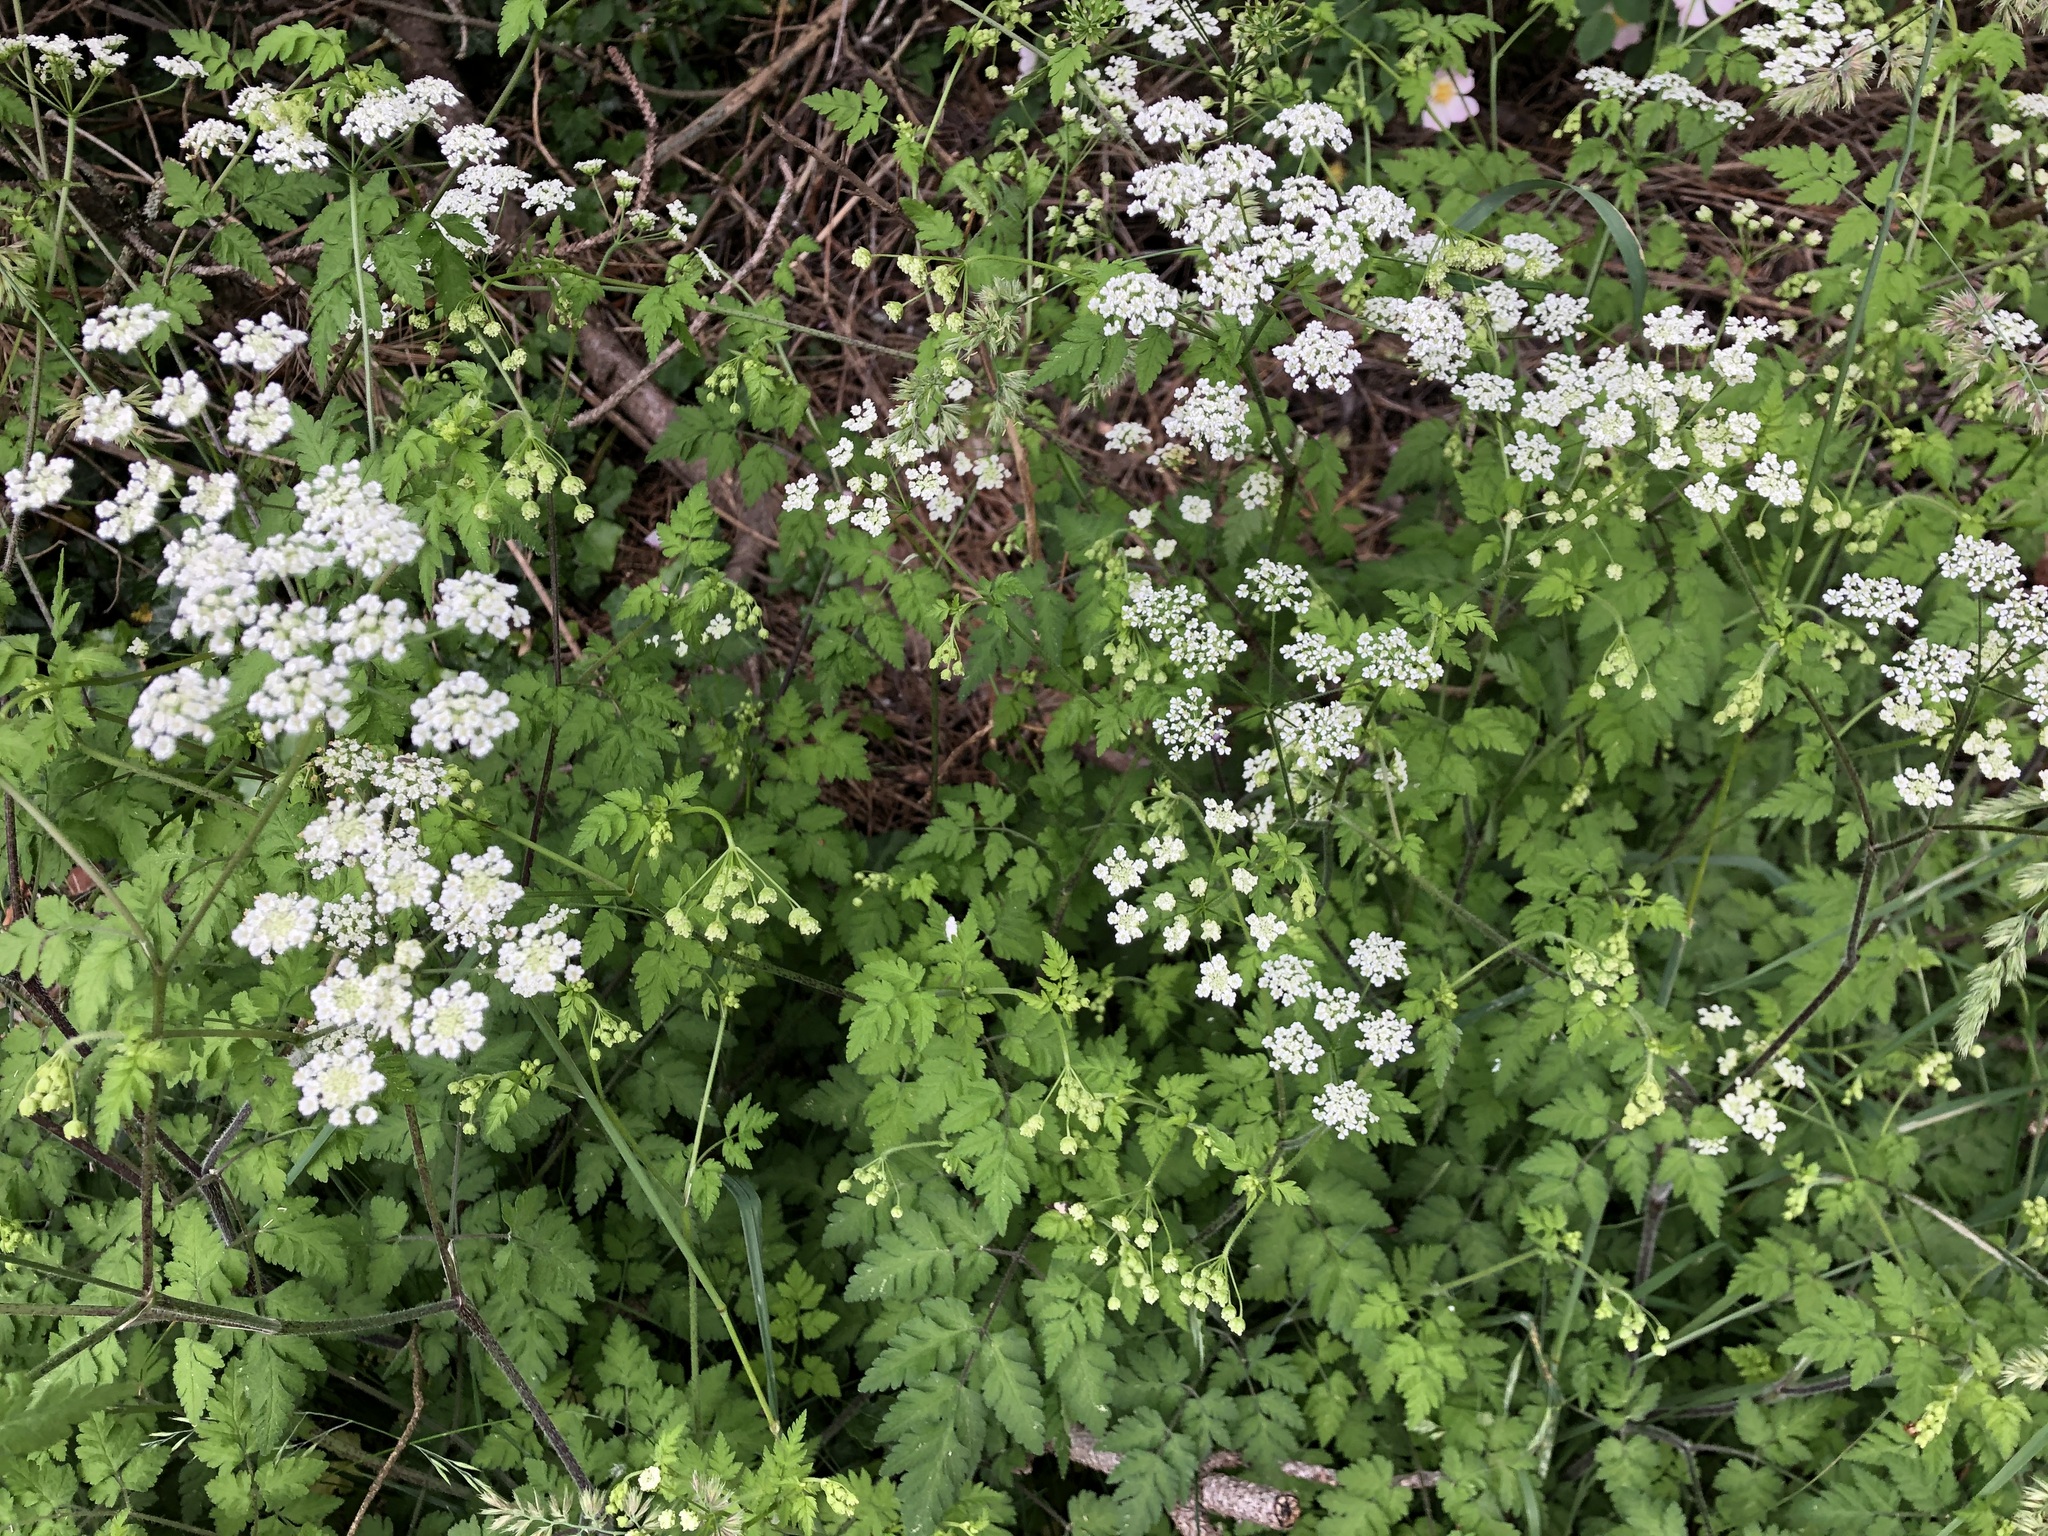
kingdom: Plantae
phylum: Tracheophyta
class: Magnoliopsida
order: Apiales
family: Apiaceae
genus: Chaerophyllum
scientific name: Chaerophyllum temulum
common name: Rough chervil
